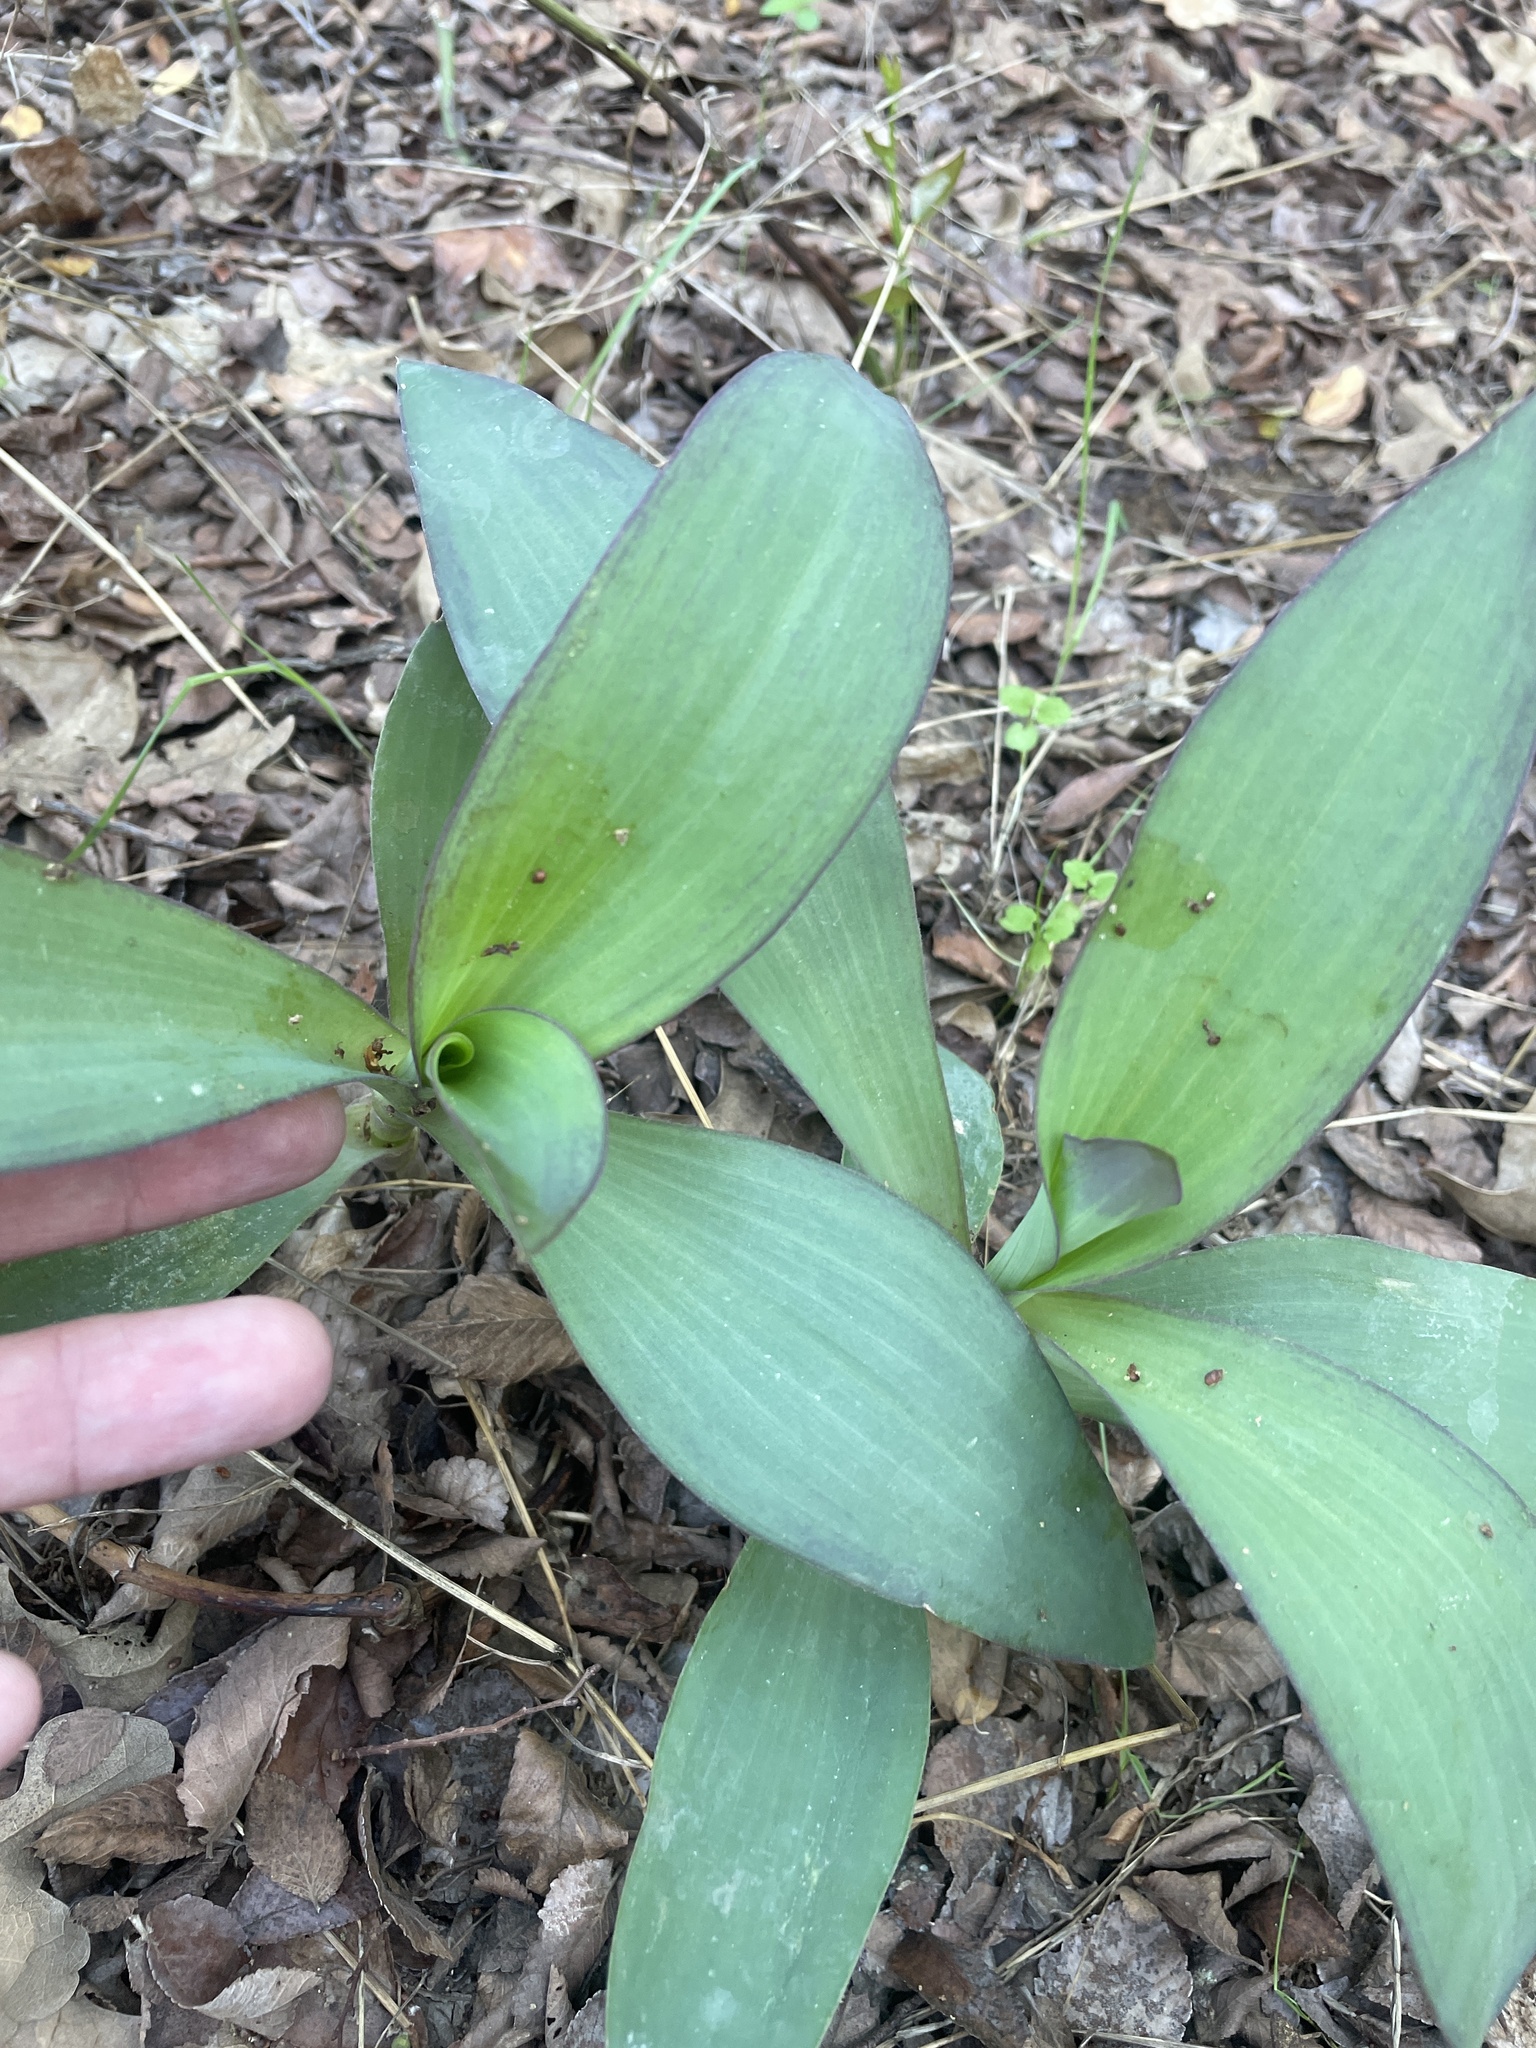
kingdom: Plantae
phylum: Tracheophyta
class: Liliopsida
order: Commelinales
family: Commelinaceae
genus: Tradescantia
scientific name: Tradescantia pallida
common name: Purpleheart
